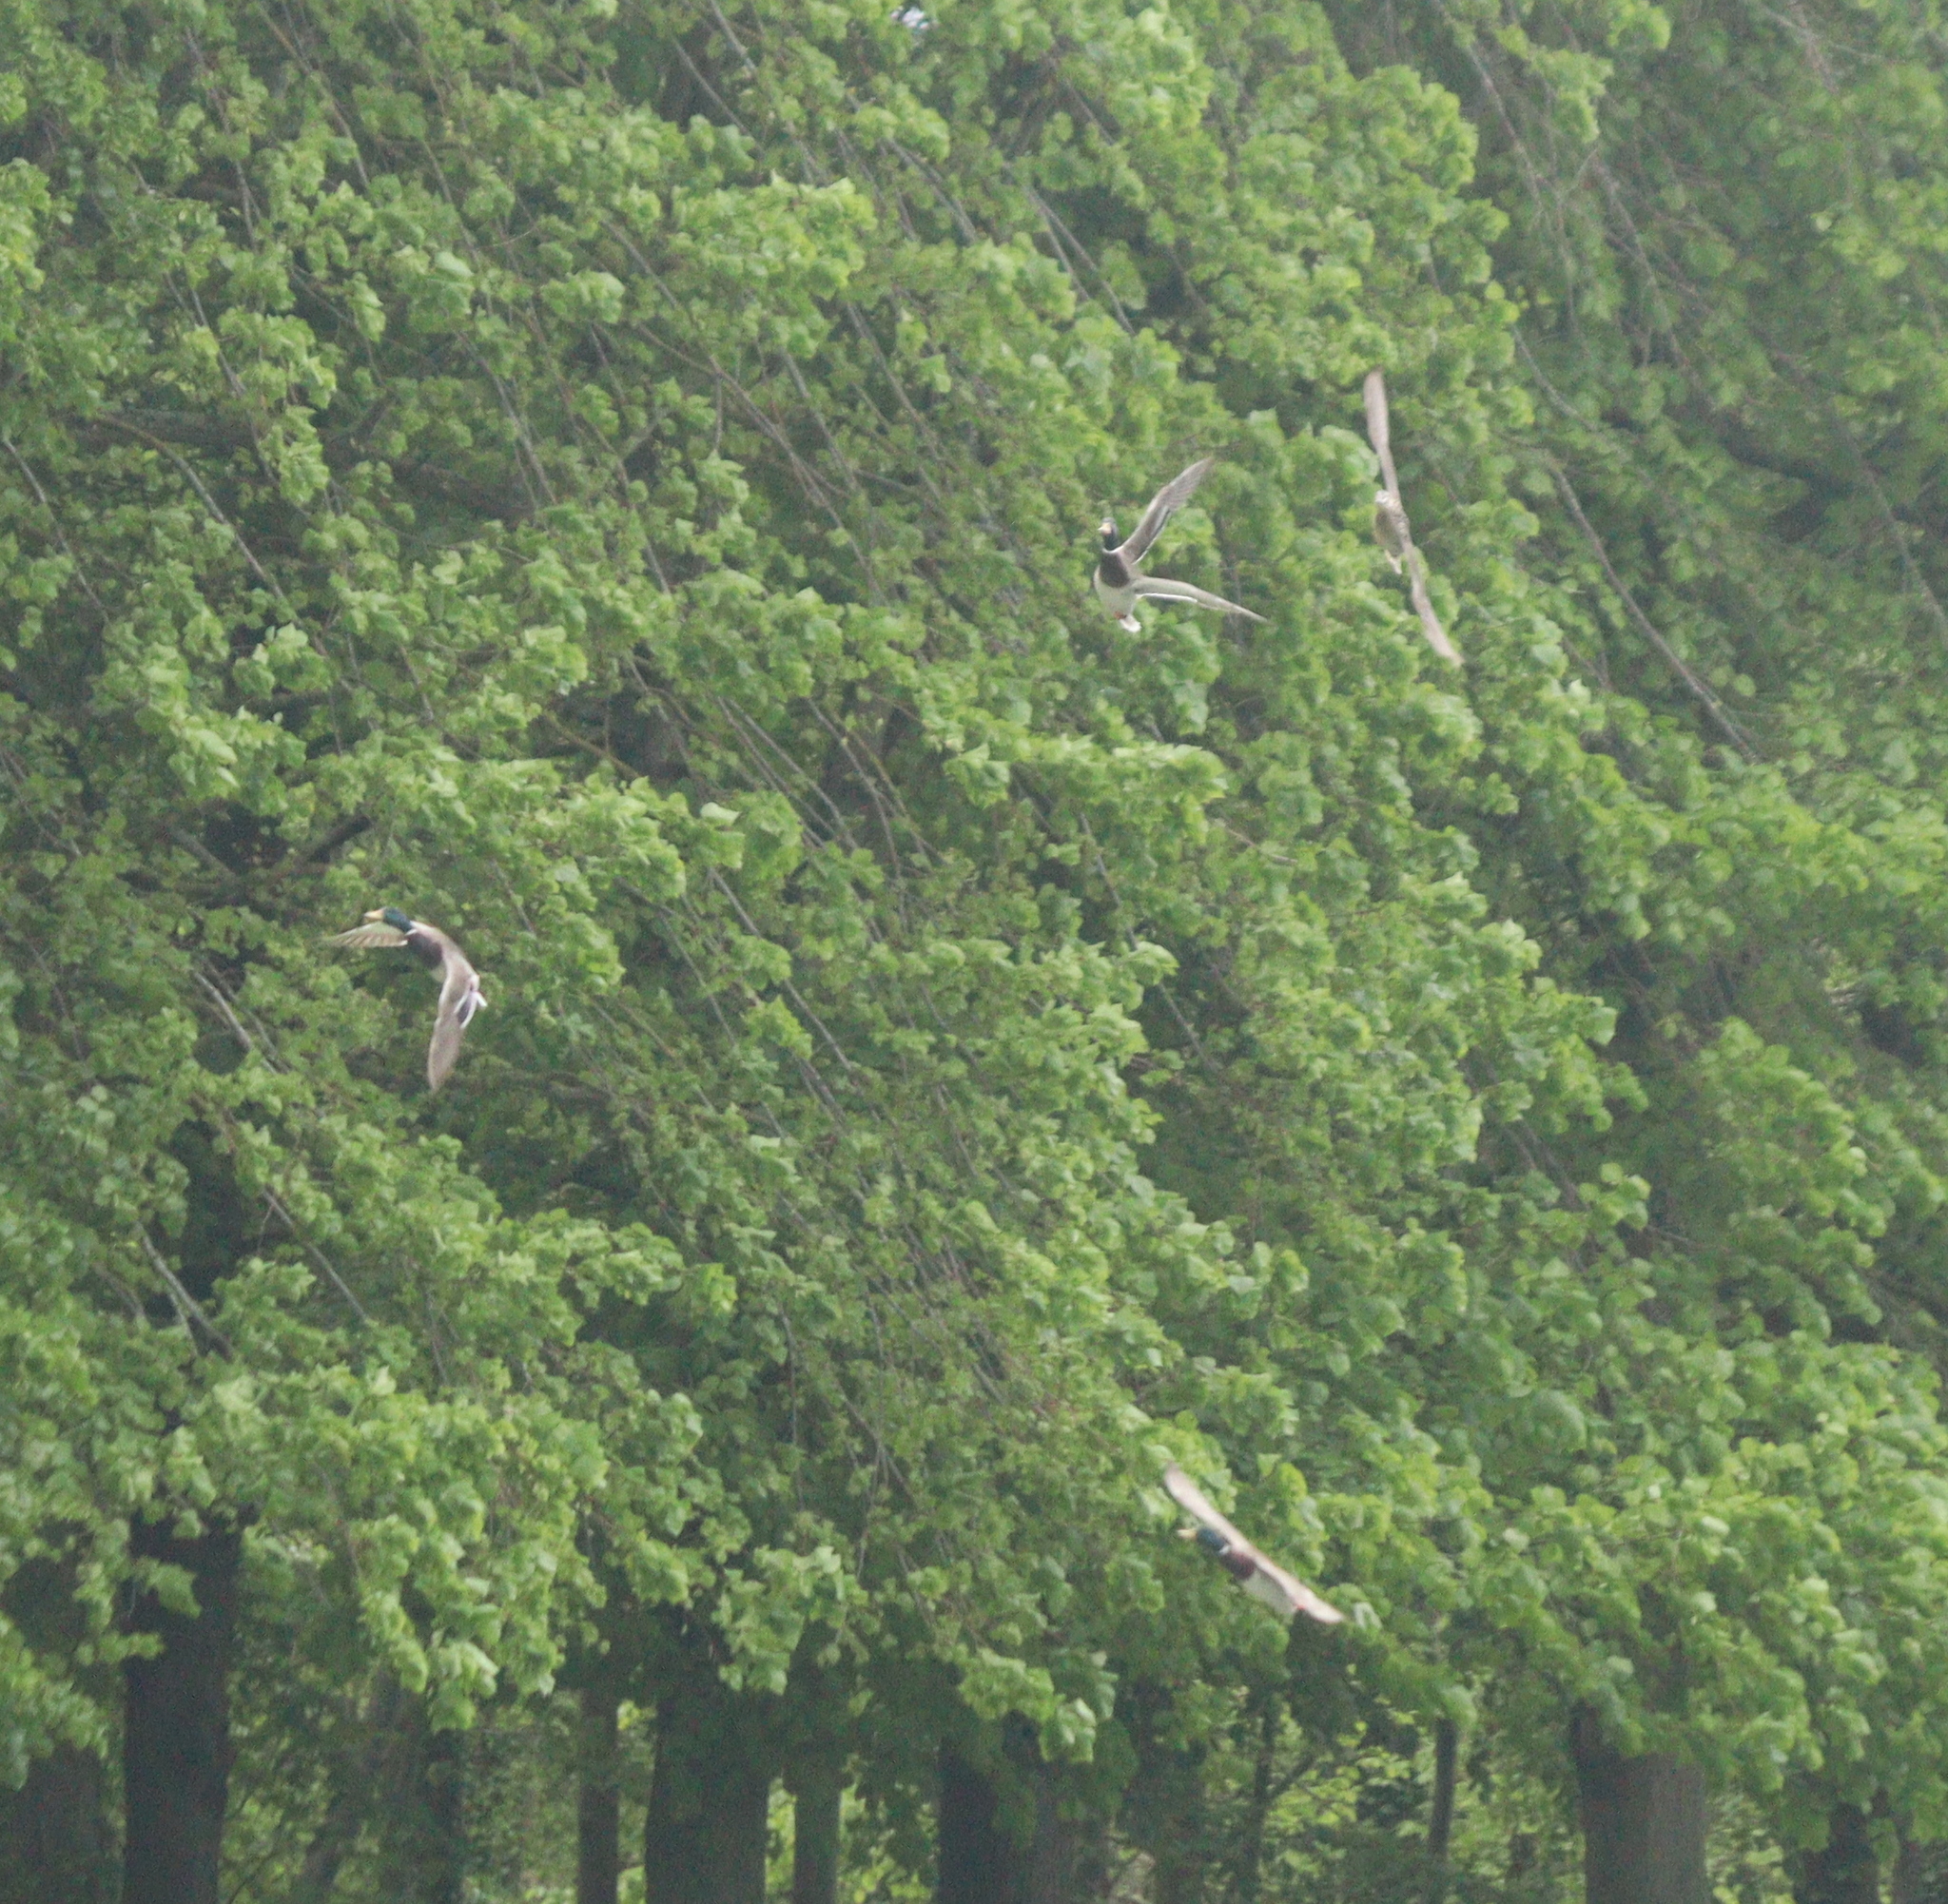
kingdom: Animalia
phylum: Chordata
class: Aves
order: Anseriformes
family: Anatidae
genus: Anas
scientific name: Anas platyrhynchos
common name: Mallard
